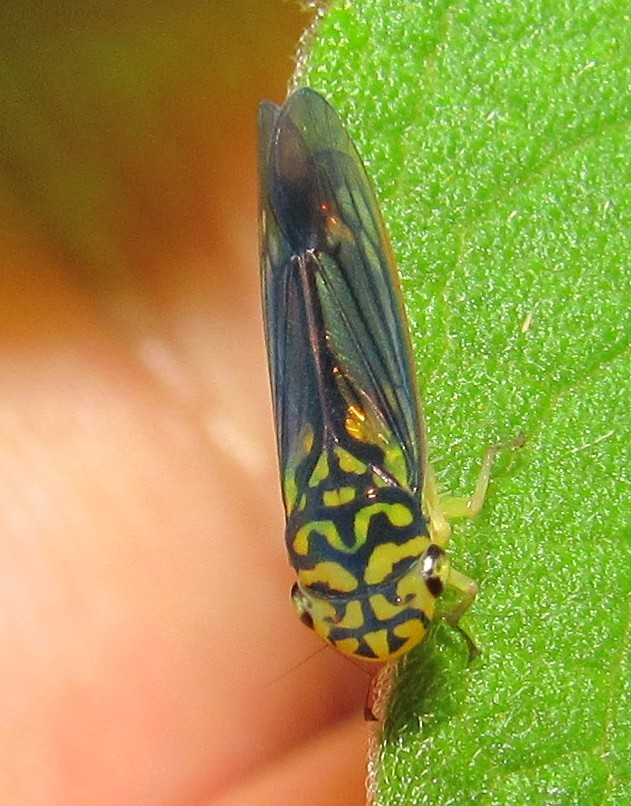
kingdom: Animalia
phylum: Arthropoda
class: Insecta
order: Hemiptera
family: Cicadellidae
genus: Dilobopterus
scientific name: Dilobopterus costalimai
